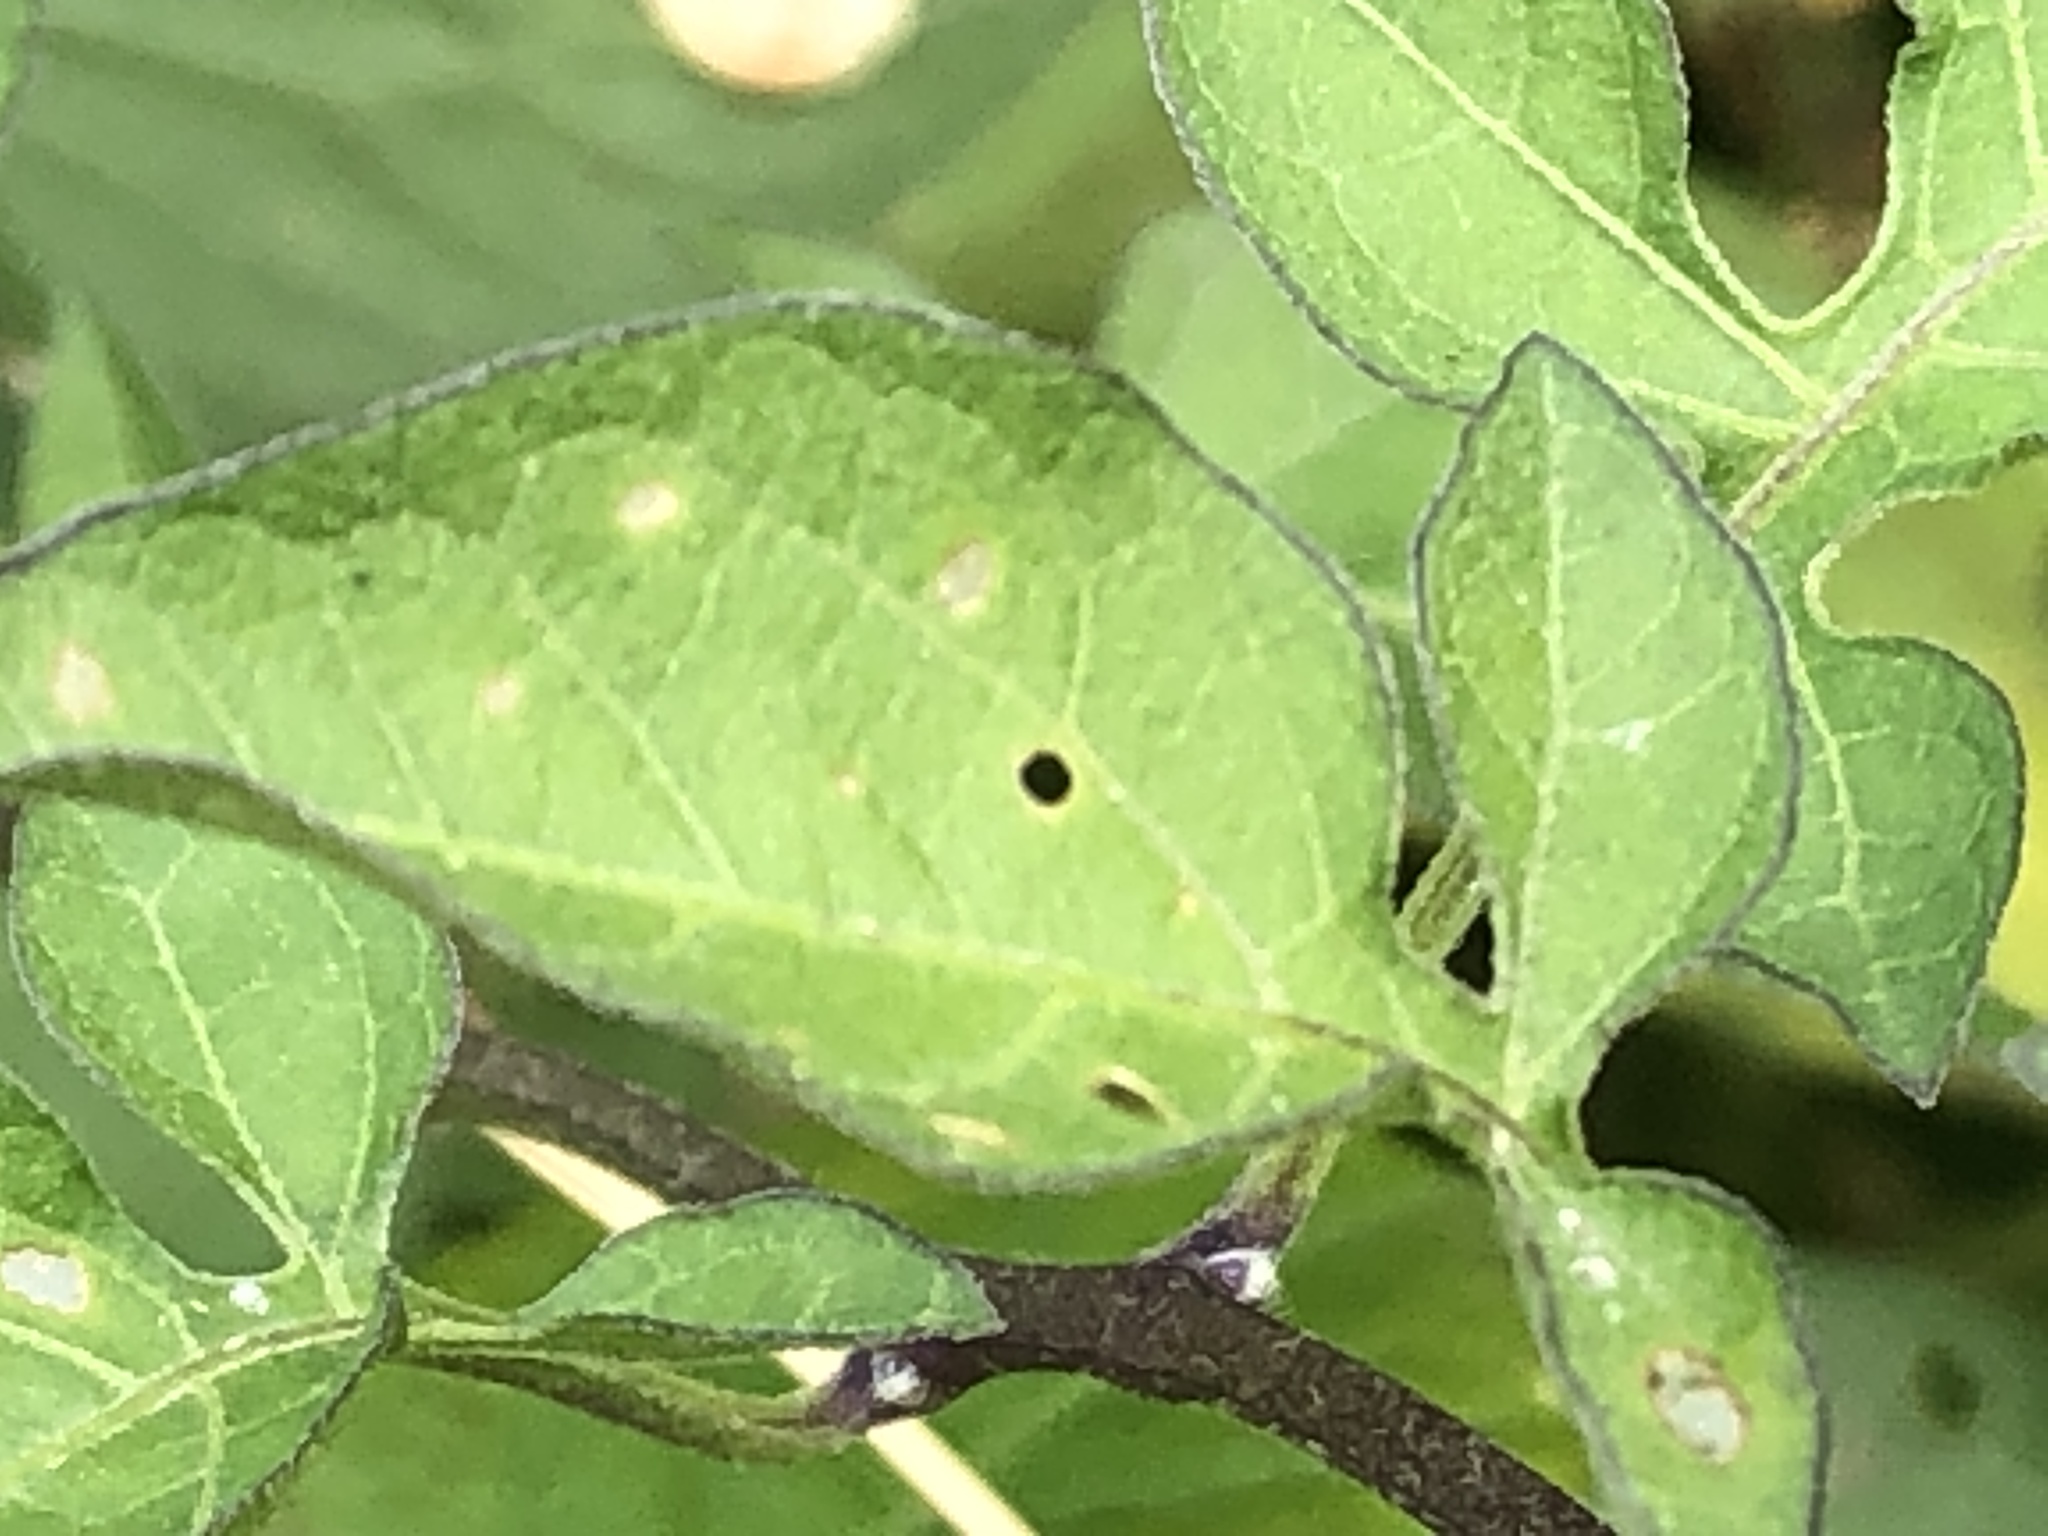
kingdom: Plantae
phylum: Tracheophyta
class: Magnoliopsida
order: Solanales
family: Solanaceae
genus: Solanum
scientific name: Solanum dulcamara
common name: Climbing nightshade
